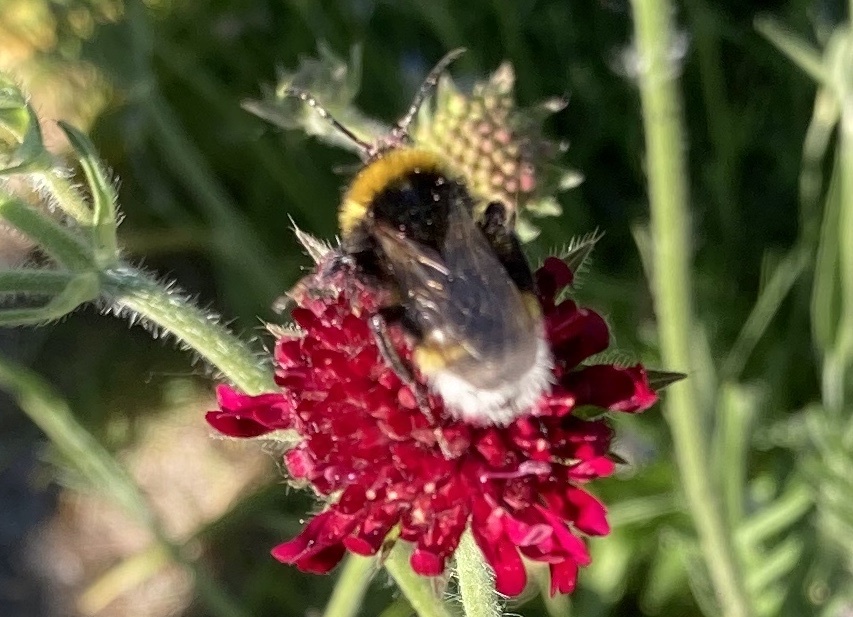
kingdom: Animalia
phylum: Arthropoda
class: Insecta
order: Hymenoptera
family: Apidae
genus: Bombus
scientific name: Bombus vestalis
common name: Vestal cuckoo bee
